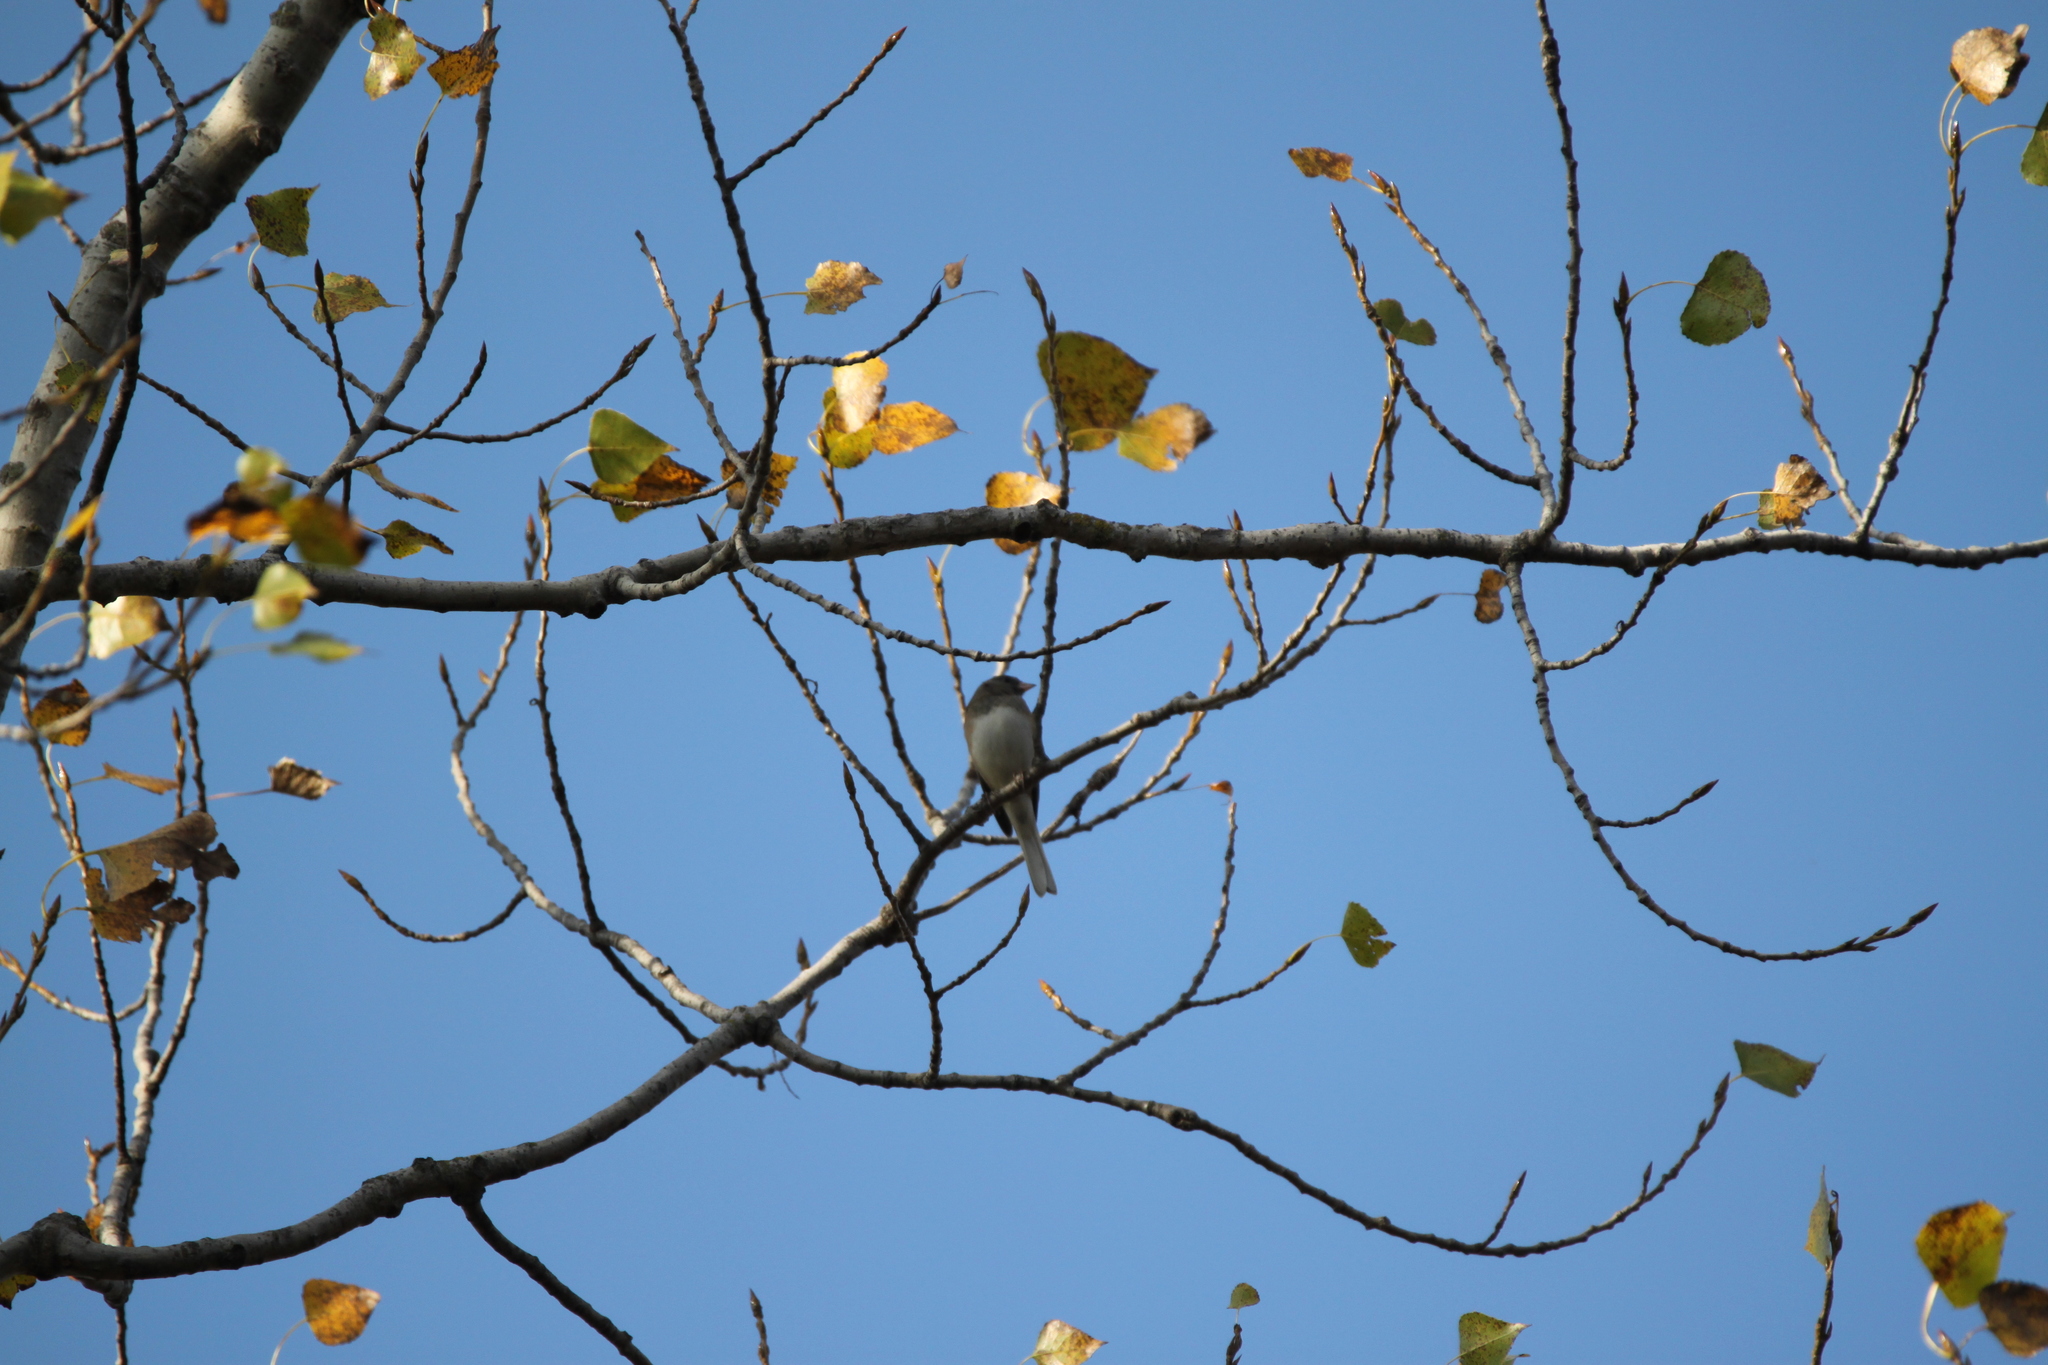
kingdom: Animalia
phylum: Chordata
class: Aves
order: Passeriformes
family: Passerellidae
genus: Junco
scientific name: Junco hyemalis
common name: Dark-eyed junco
